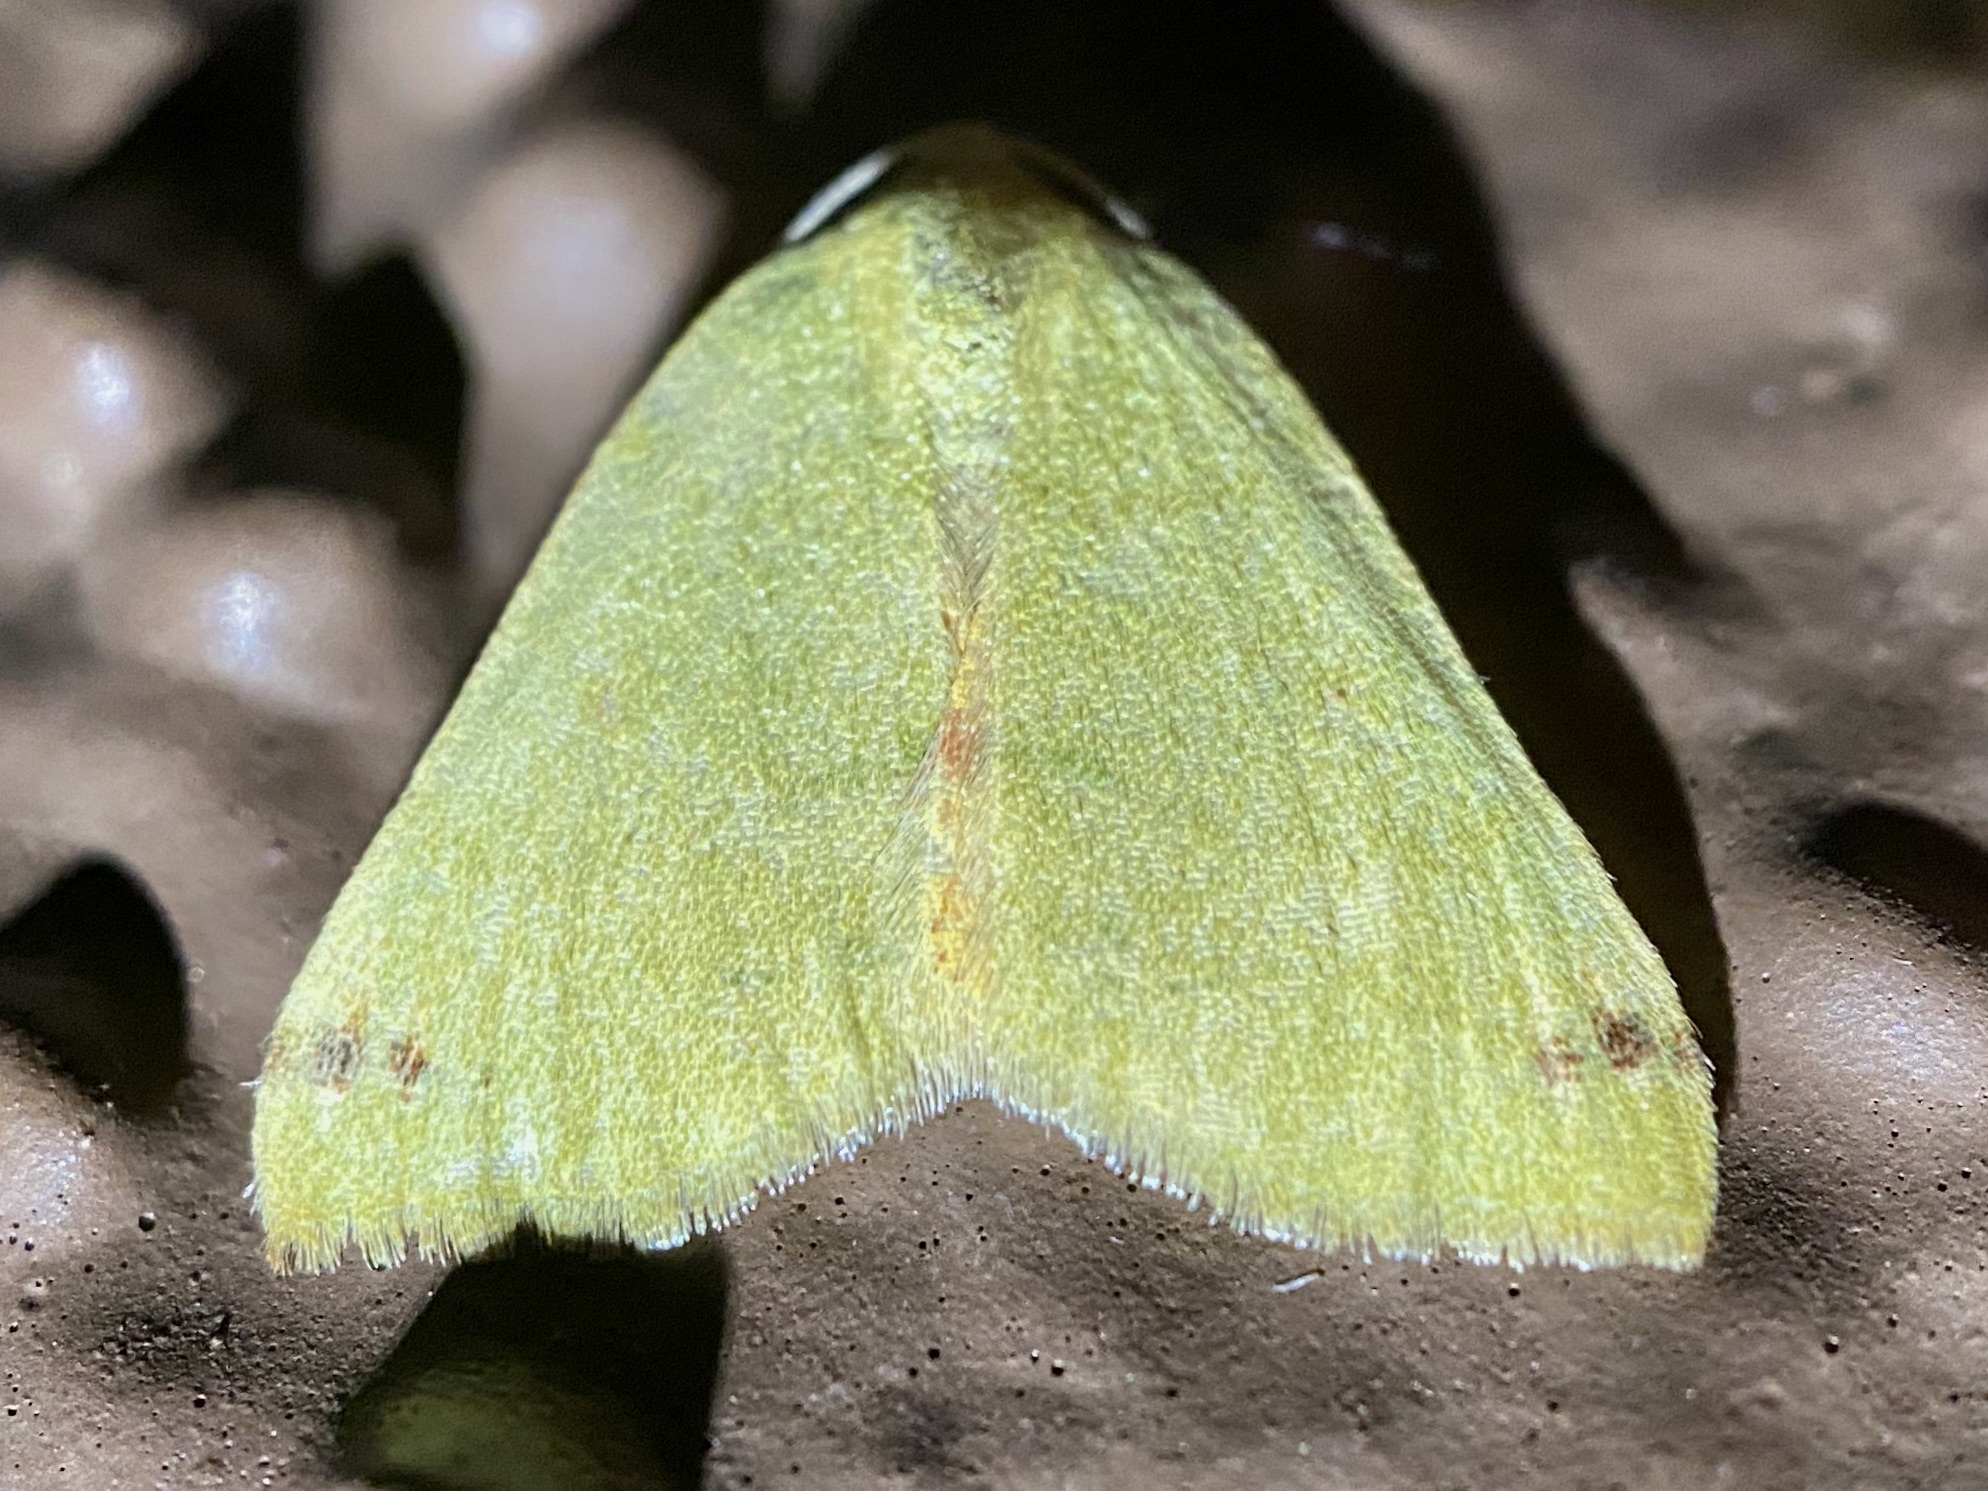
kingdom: Animalia
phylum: Arthropoda
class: Insecta
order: Lepidoptera
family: Geometridae
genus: Chloraspilates
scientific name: Chloraspilates bicoloraria
